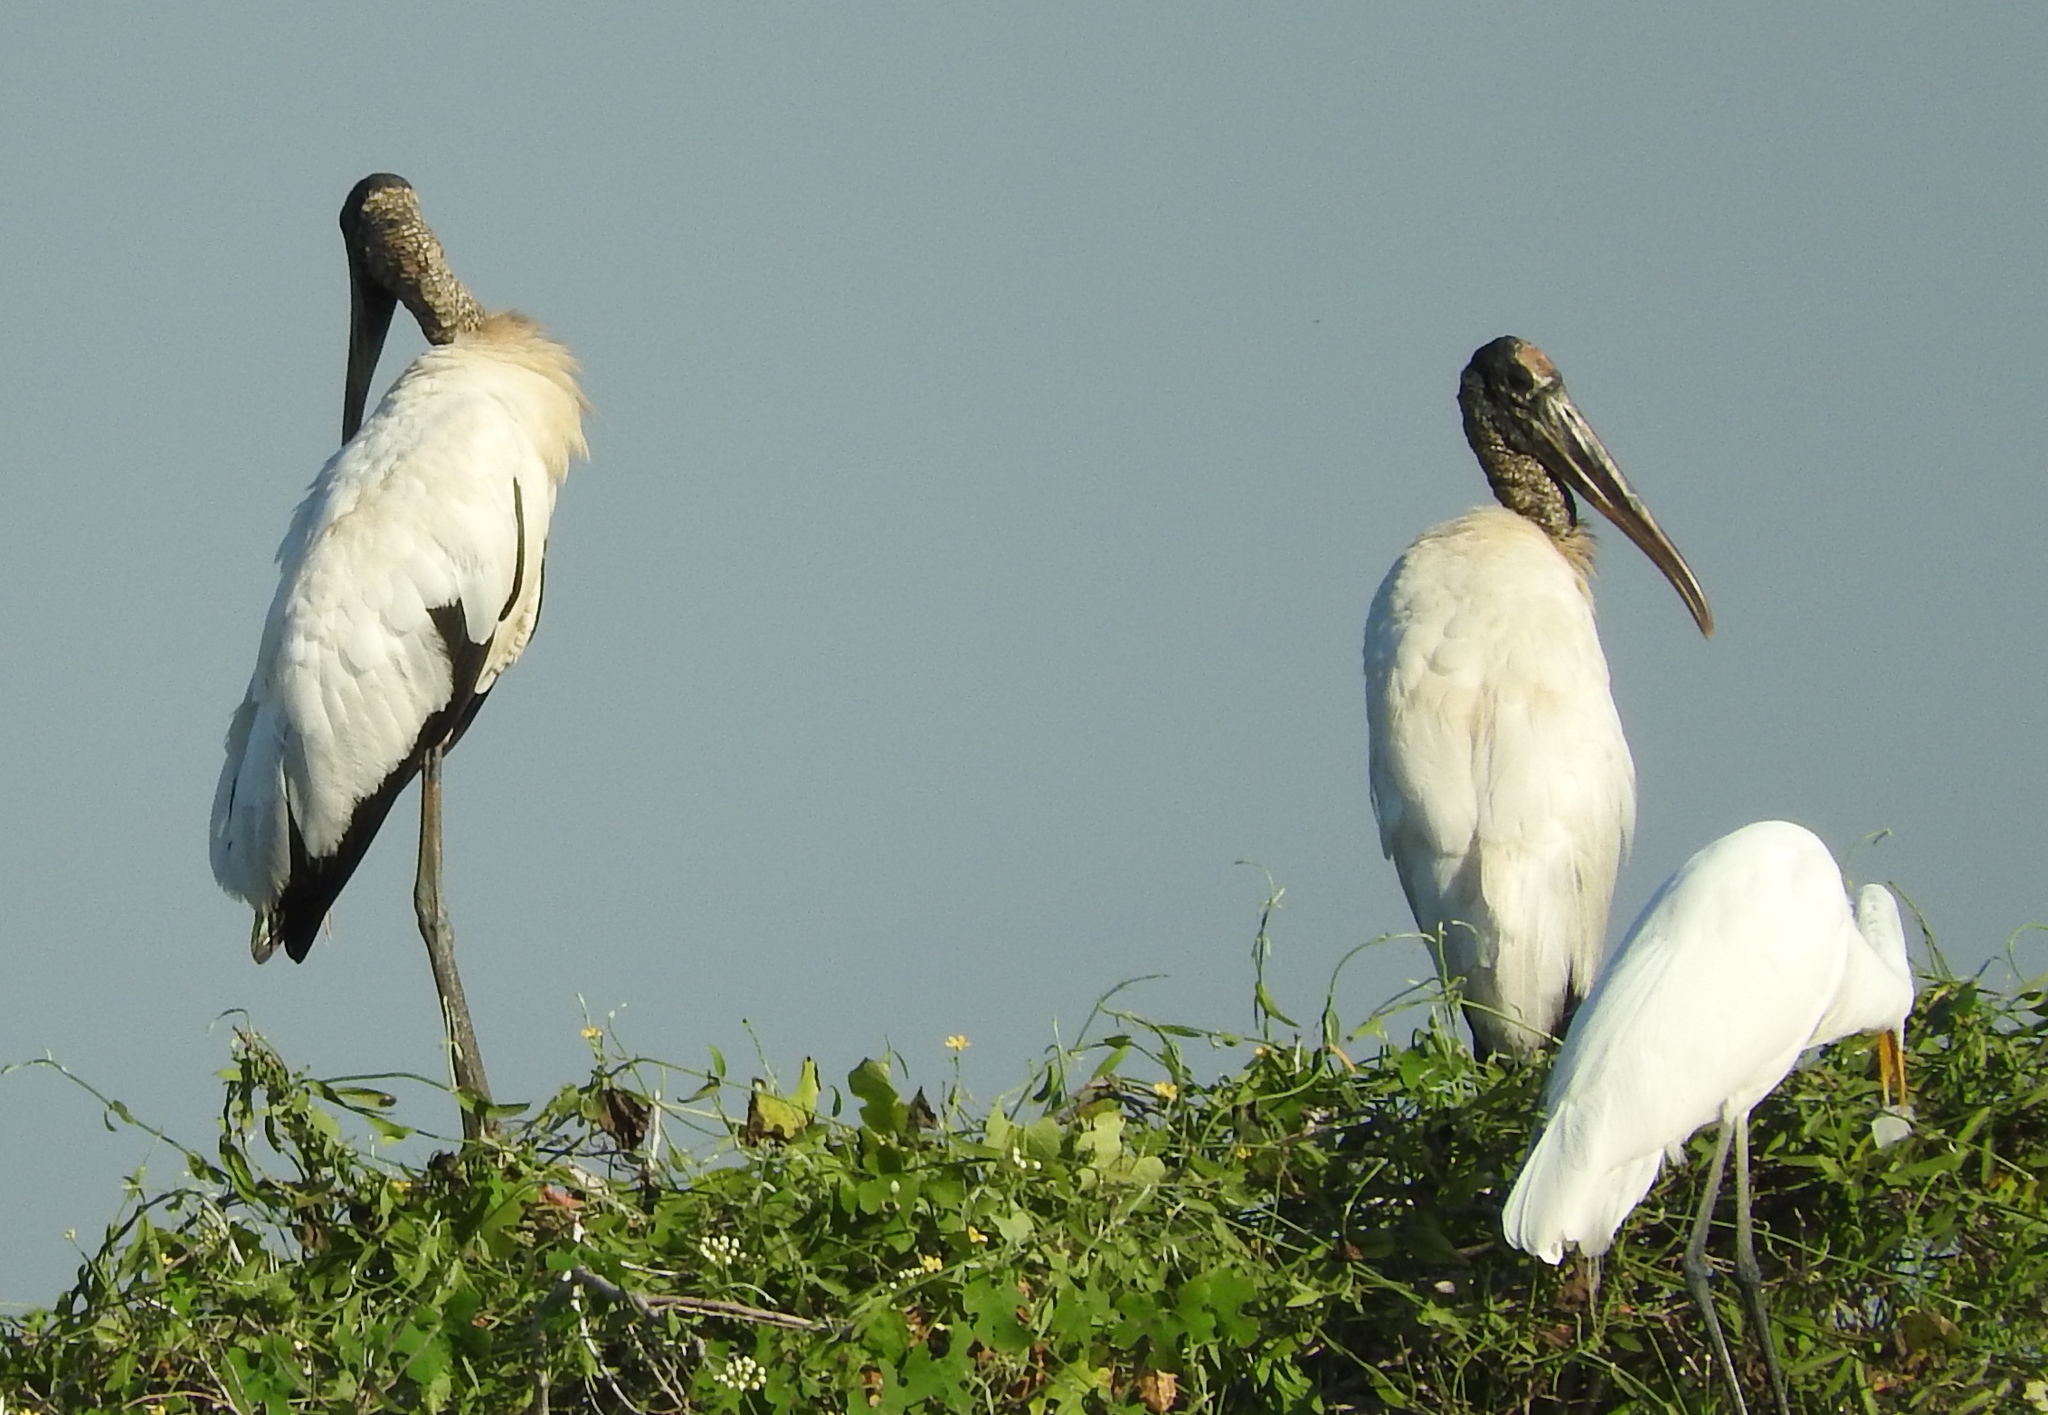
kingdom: Animalia
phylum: Chordata
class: Aves
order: Ciconiiformes
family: Ciconiidae
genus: Mycteria
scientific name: Mycteria americana
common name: Wood stork
